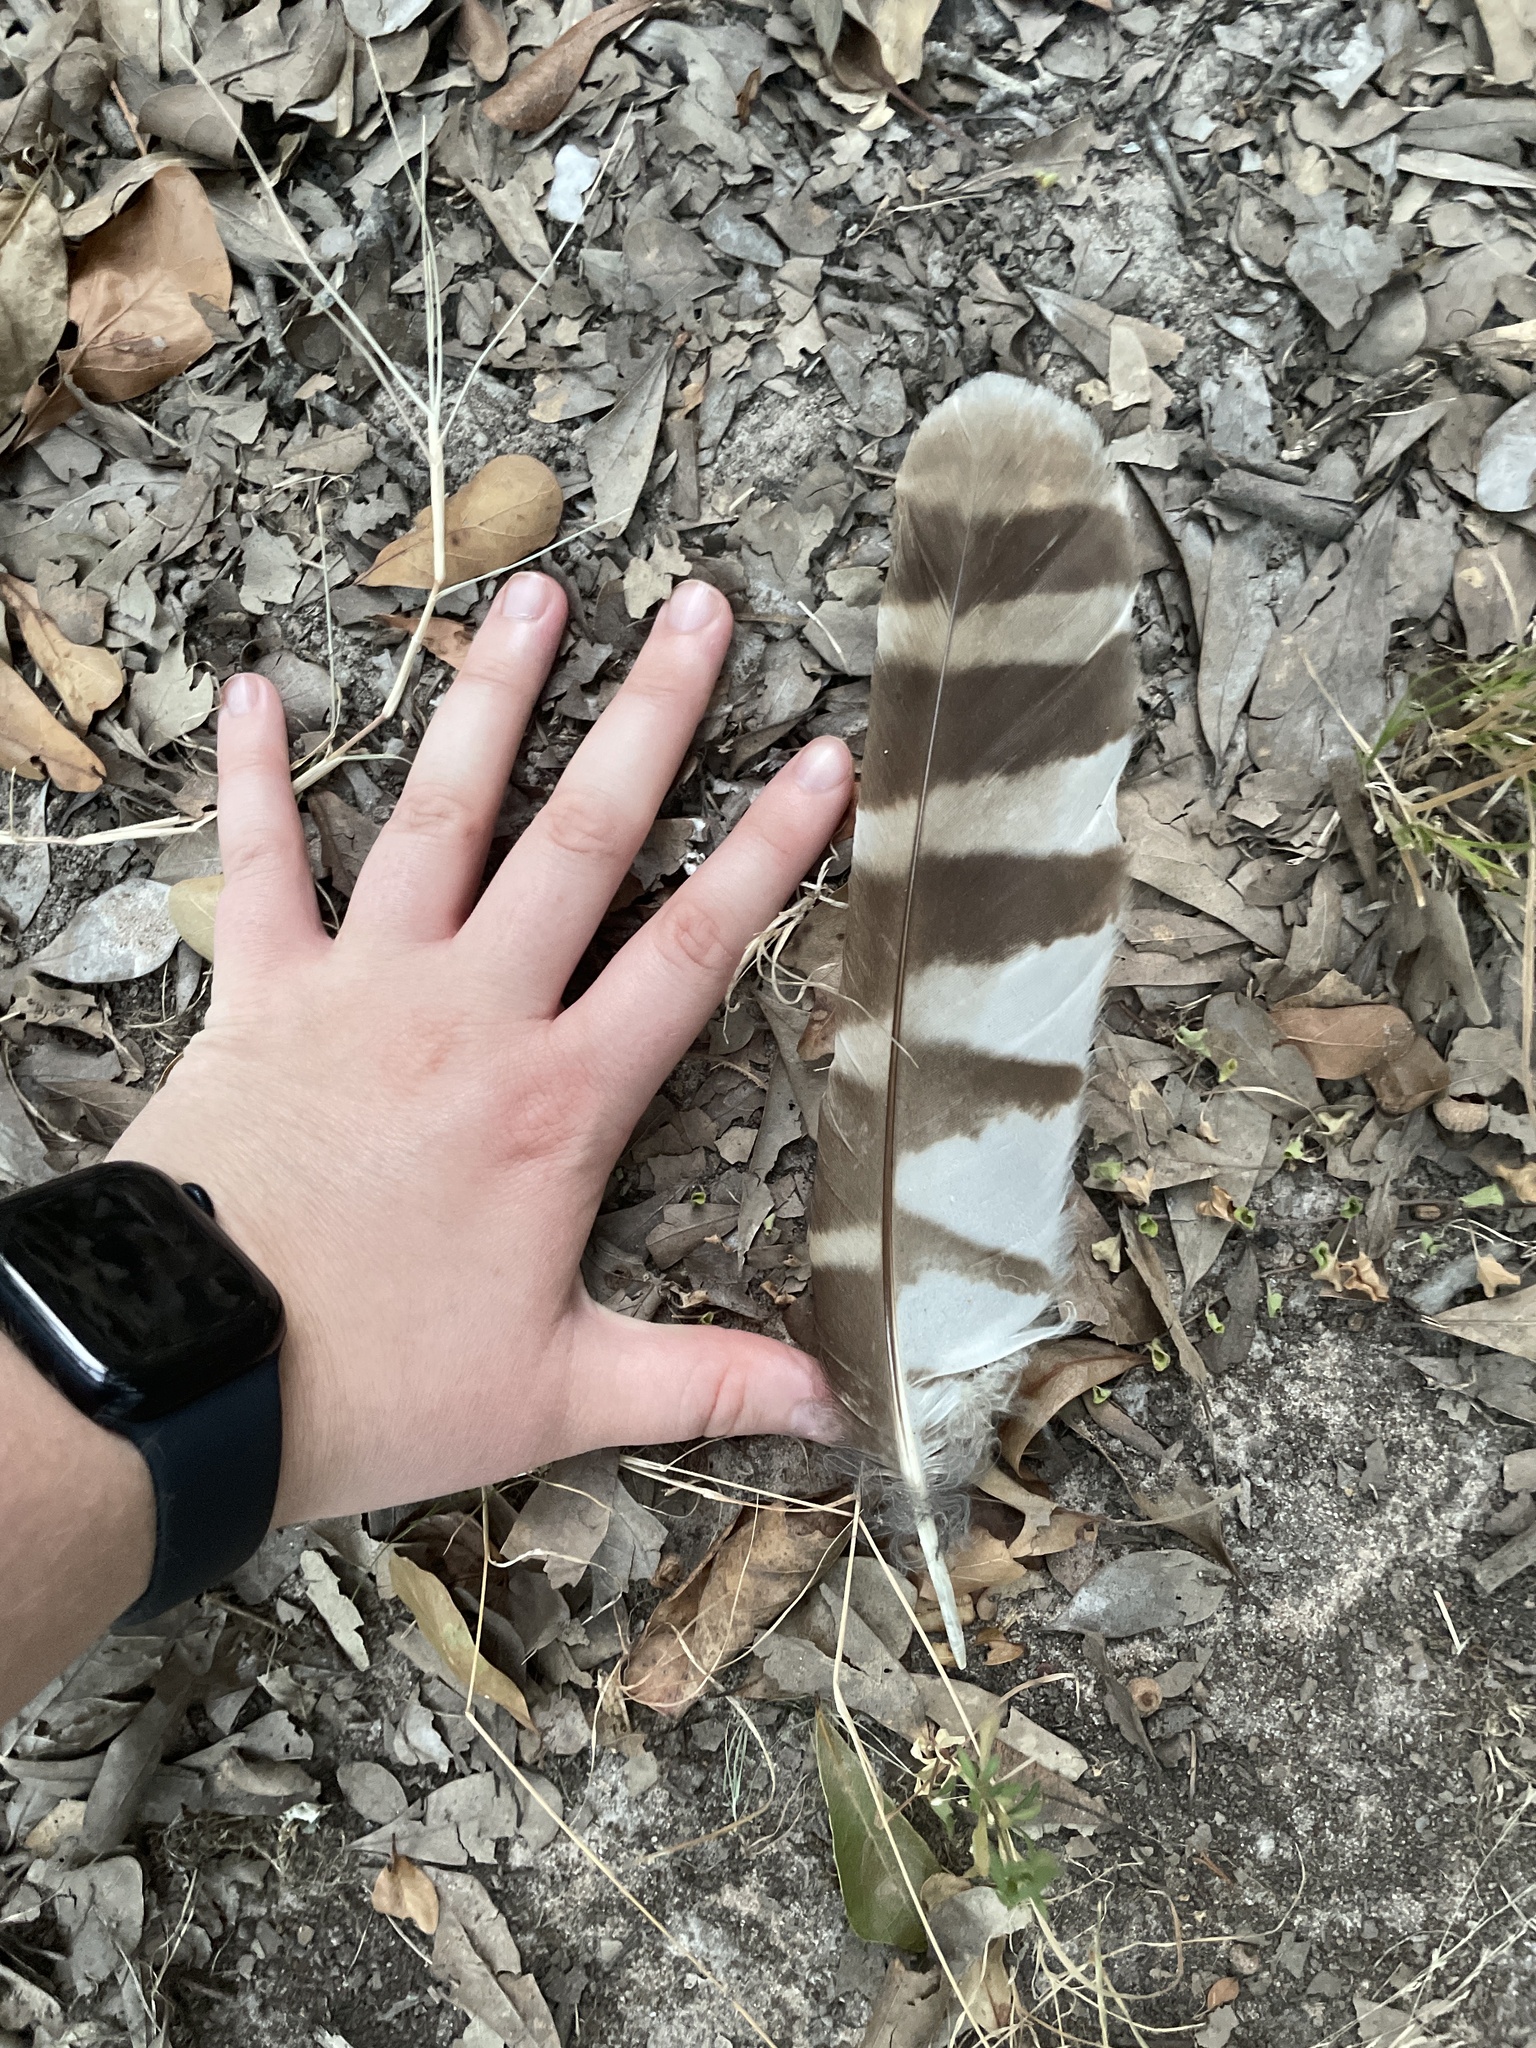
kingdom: Animalia
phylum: Chordata
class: Aves
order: Strigiformes
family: Strigidae
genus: Strix
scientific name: Strix varia
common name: Barred owl
